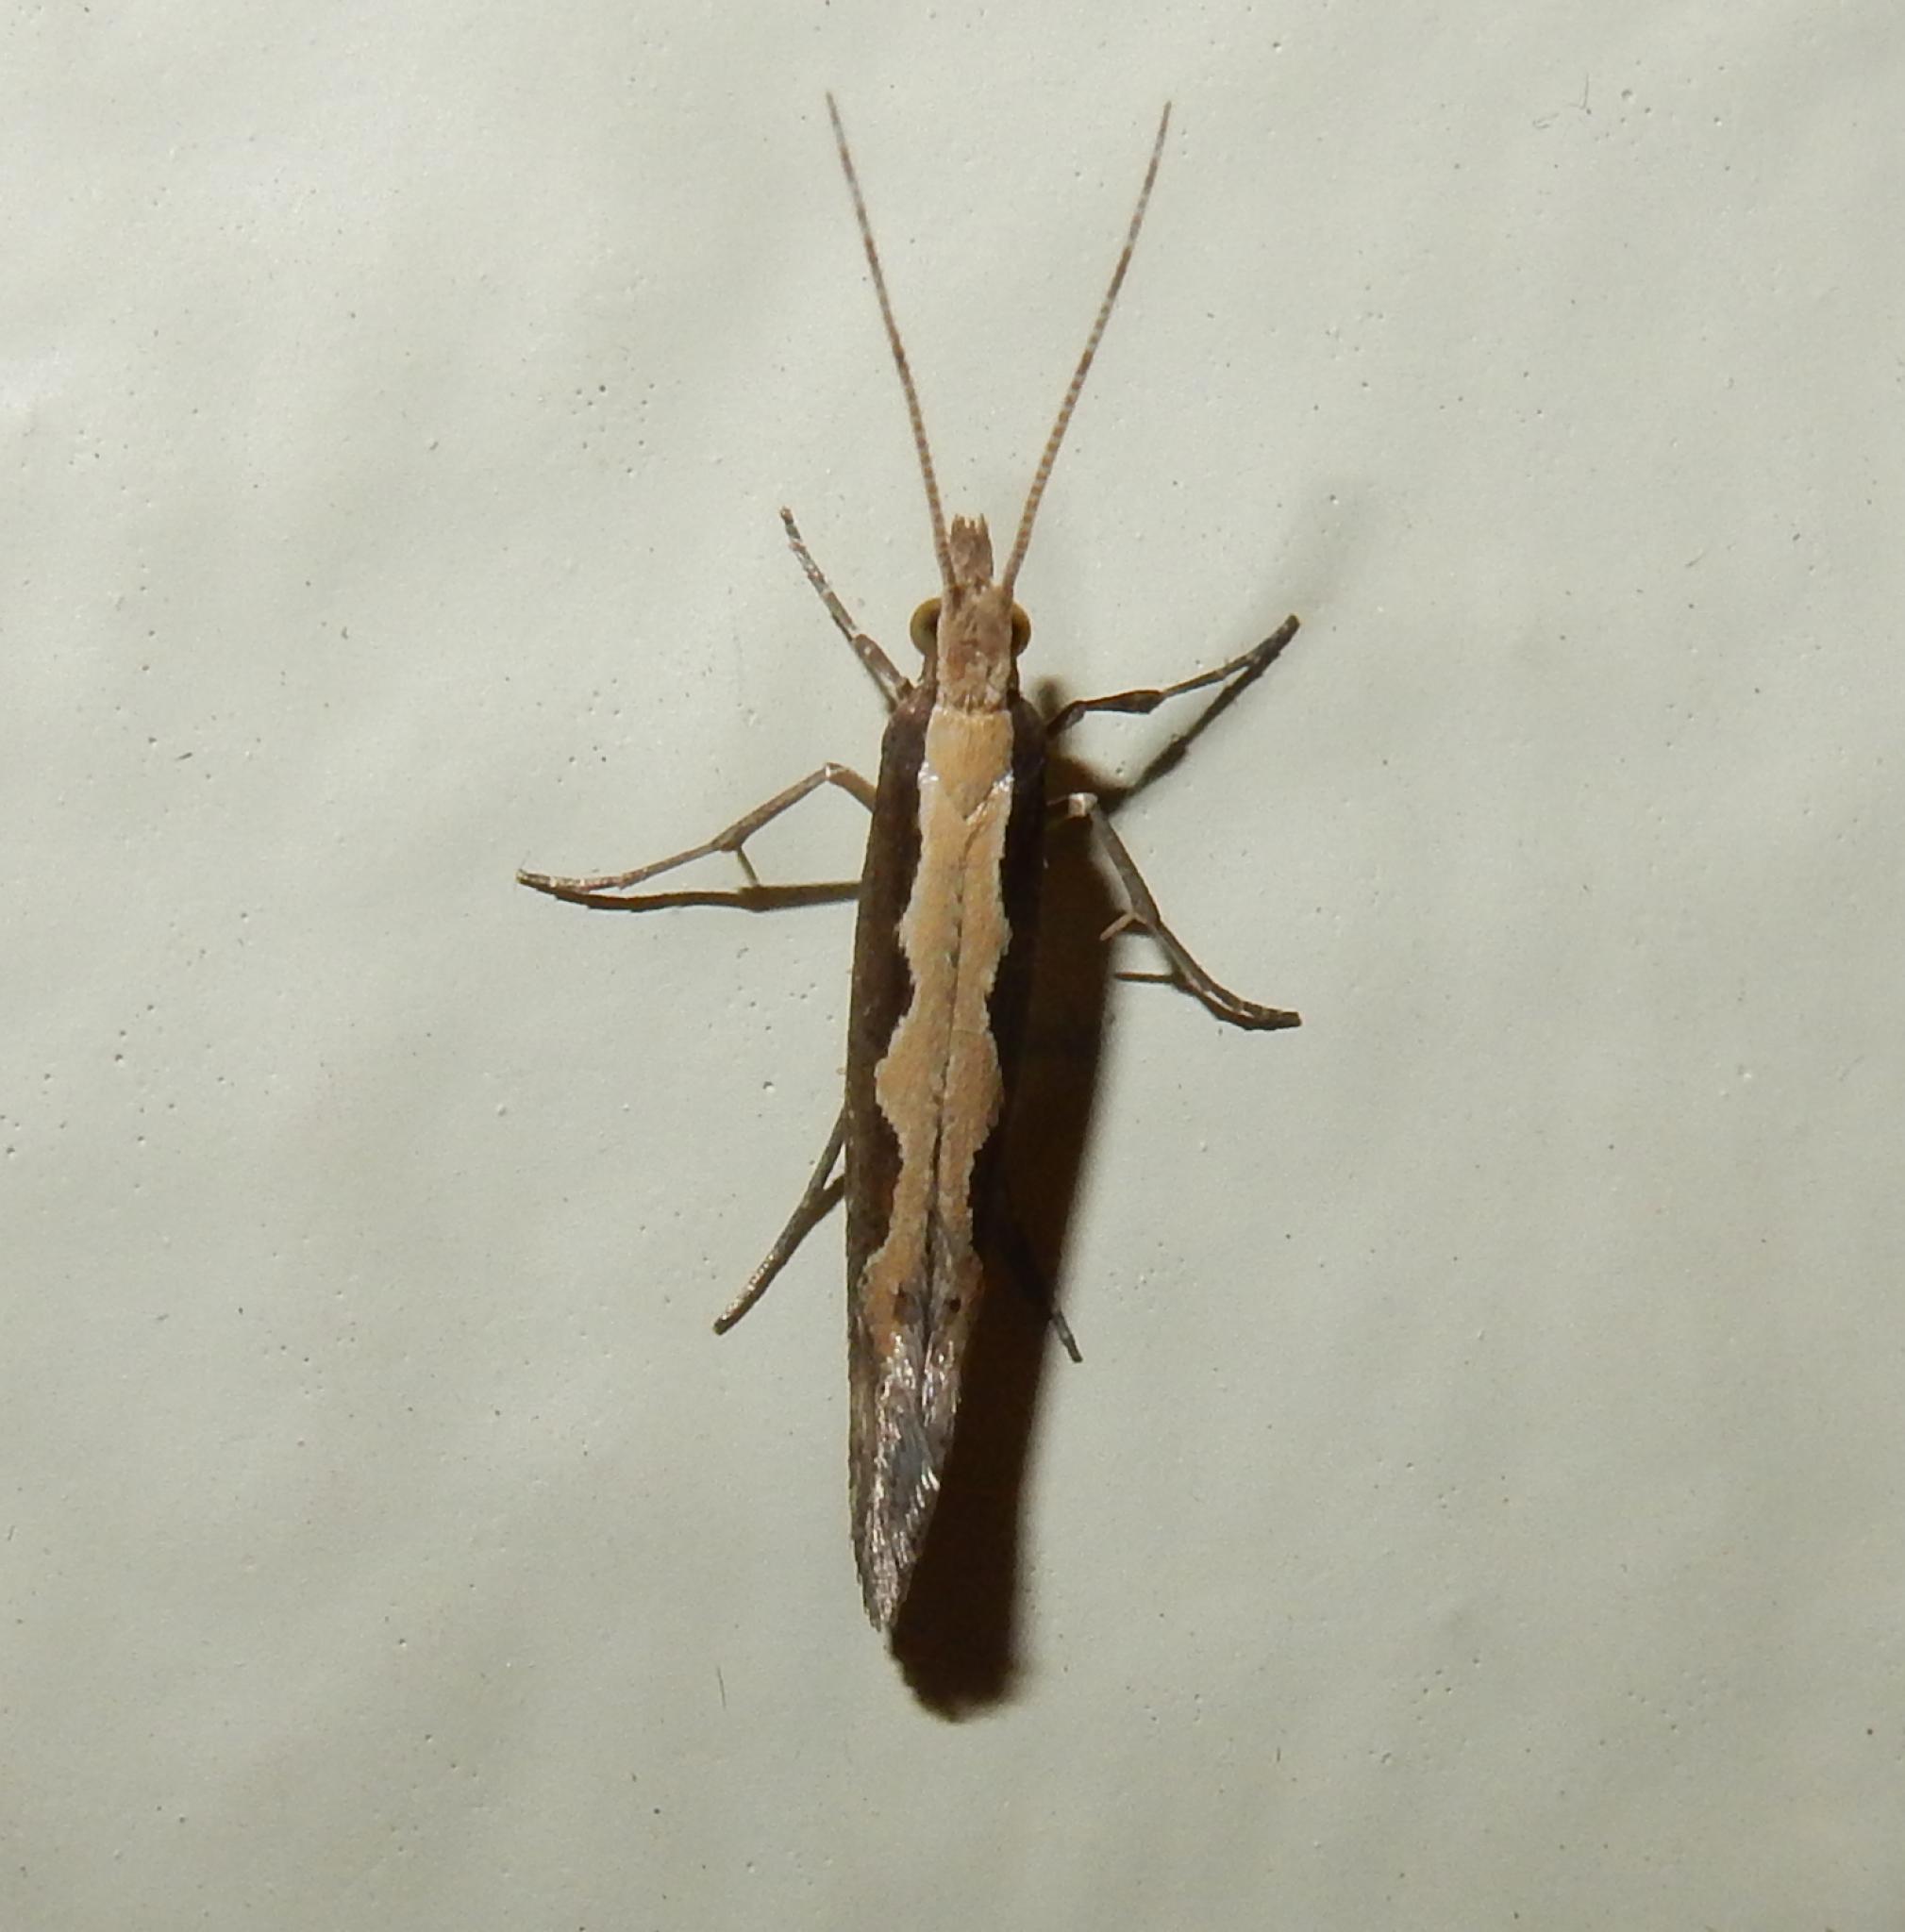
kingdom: Animalia
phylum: Arthropoda
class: Insecta
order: Lepidoptera
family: Plutellidae
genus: Plutella
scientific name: Plutella xylostella
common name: Diamond-back moth
